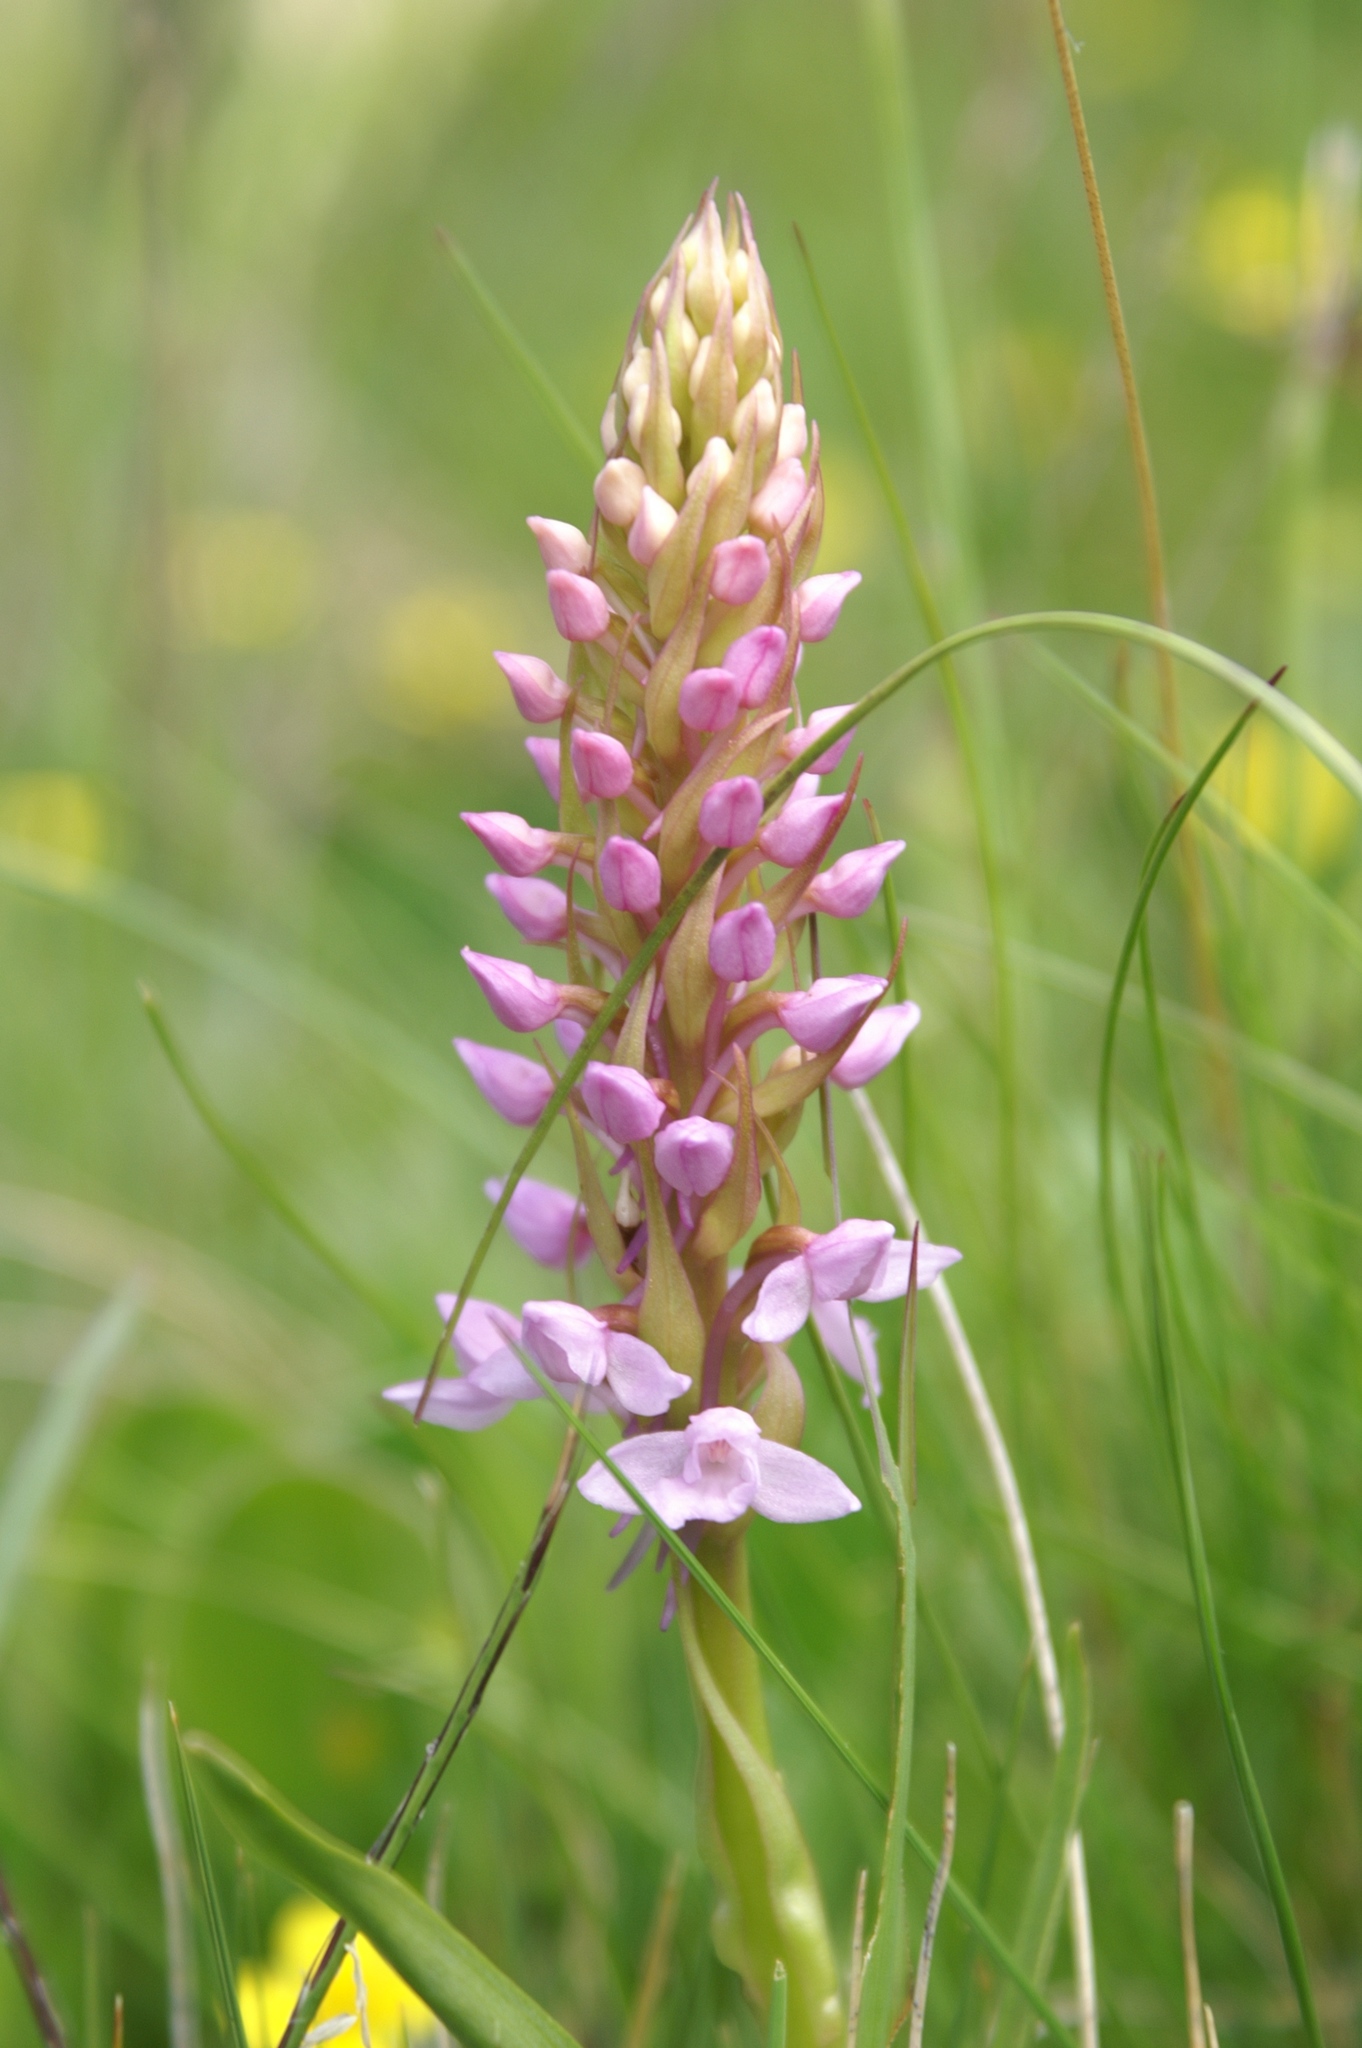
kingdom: Plantae
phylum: Tracheophyta
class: Liliopsida
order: Asparagales
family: Orchidaceae
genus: Gymnadenia
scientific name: Gymnadenia conopsea
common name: Fragrant orchid
